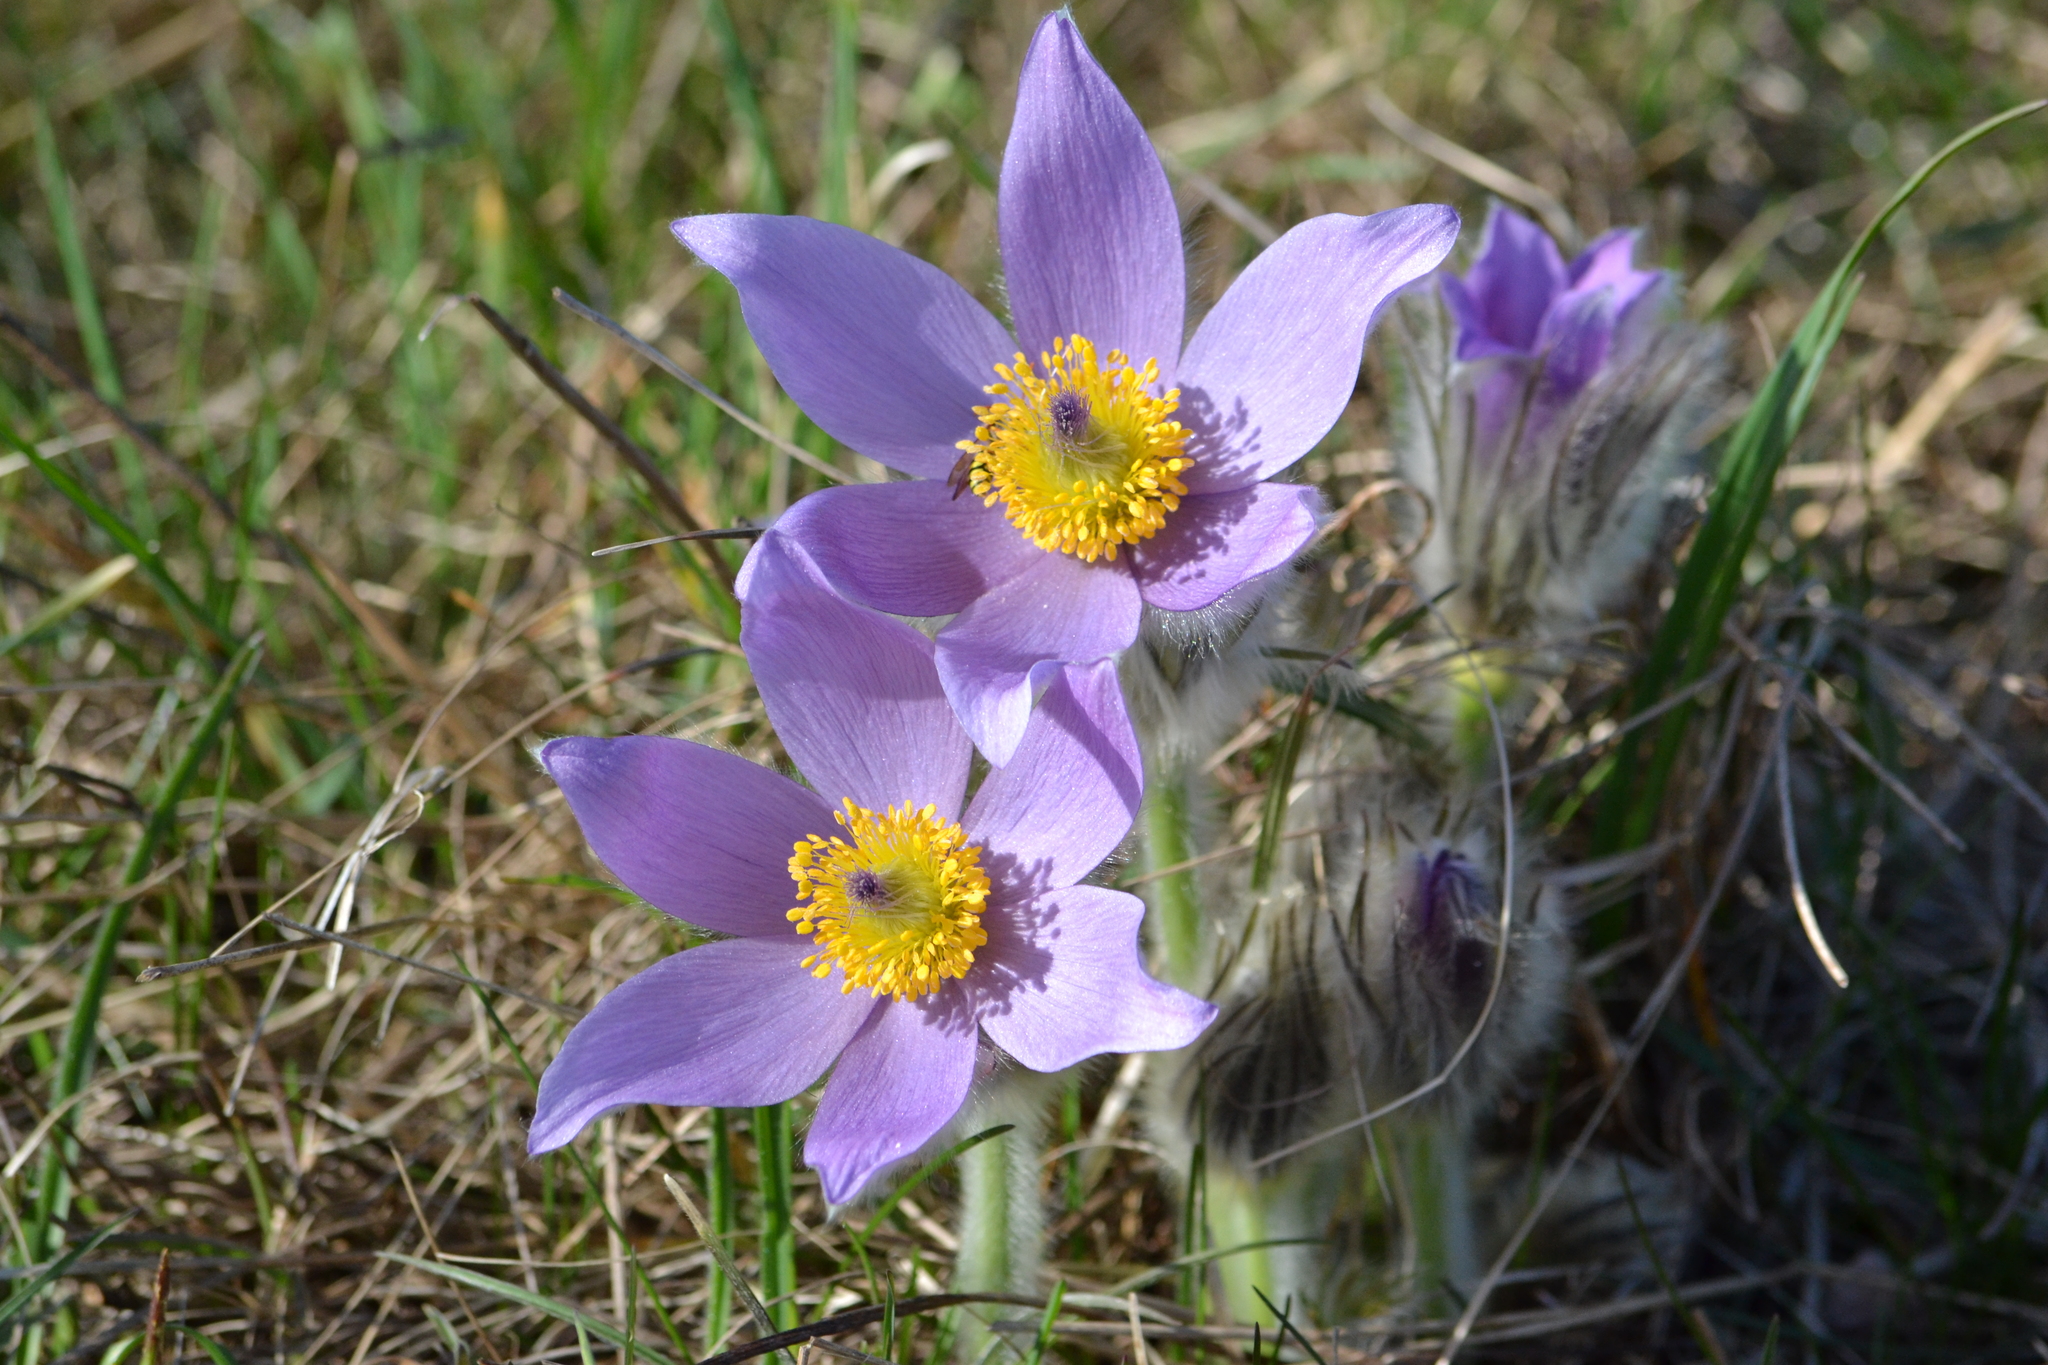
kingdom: Plantae
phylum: Tracheophyta
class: Magnoliopsida
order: Ranunculales
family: Ranunculaceae
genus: Pulsatilla
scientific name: Pulsatilla grandis
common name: Greater pasque flower
